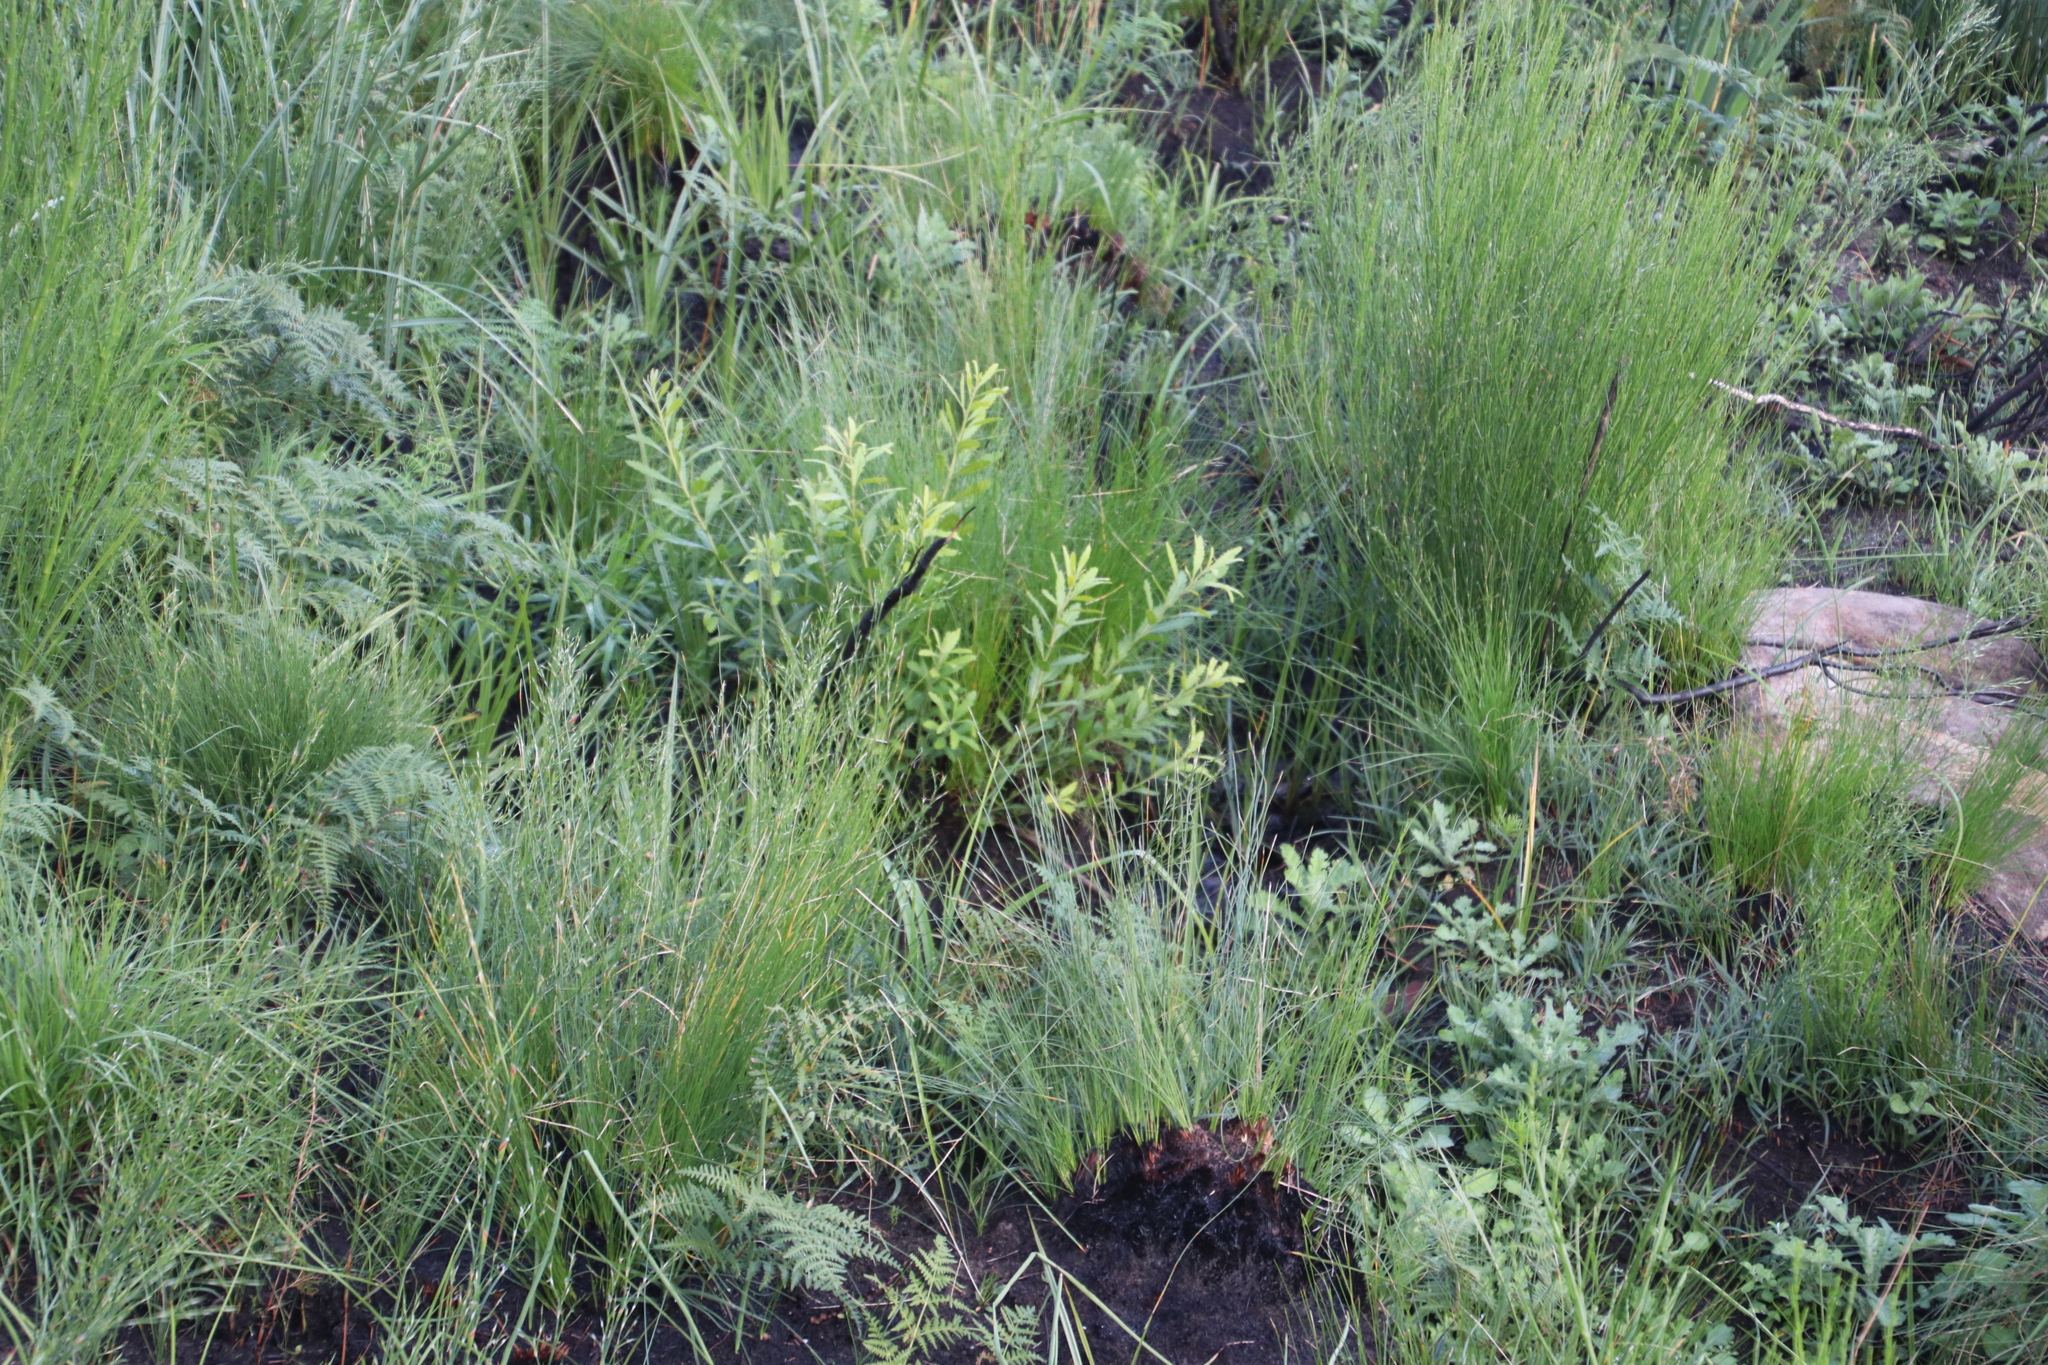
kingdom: Plantae
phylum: Tracheophyta
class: Magnoliopsida
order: Fagales
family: Myricaceae
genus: Morella
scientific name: Morella serrata
